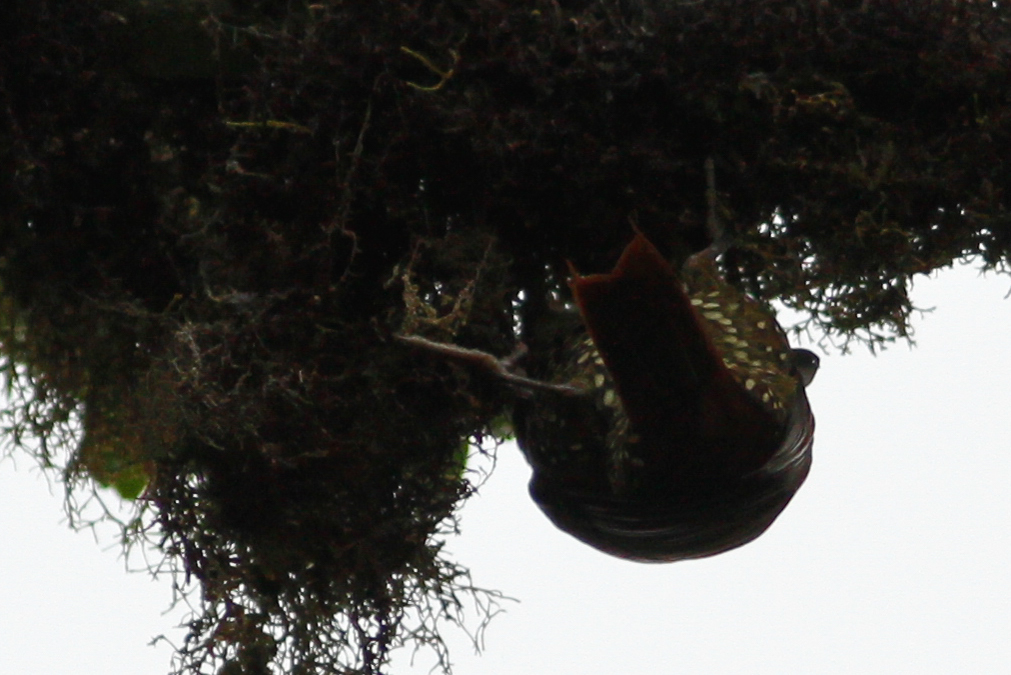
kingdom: Animalia
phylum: Chordata
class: Aves
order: Passeriformes
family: Furnariidae
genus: Margarornis
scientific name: Margarornis squamiger
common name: Pearled treerunner
